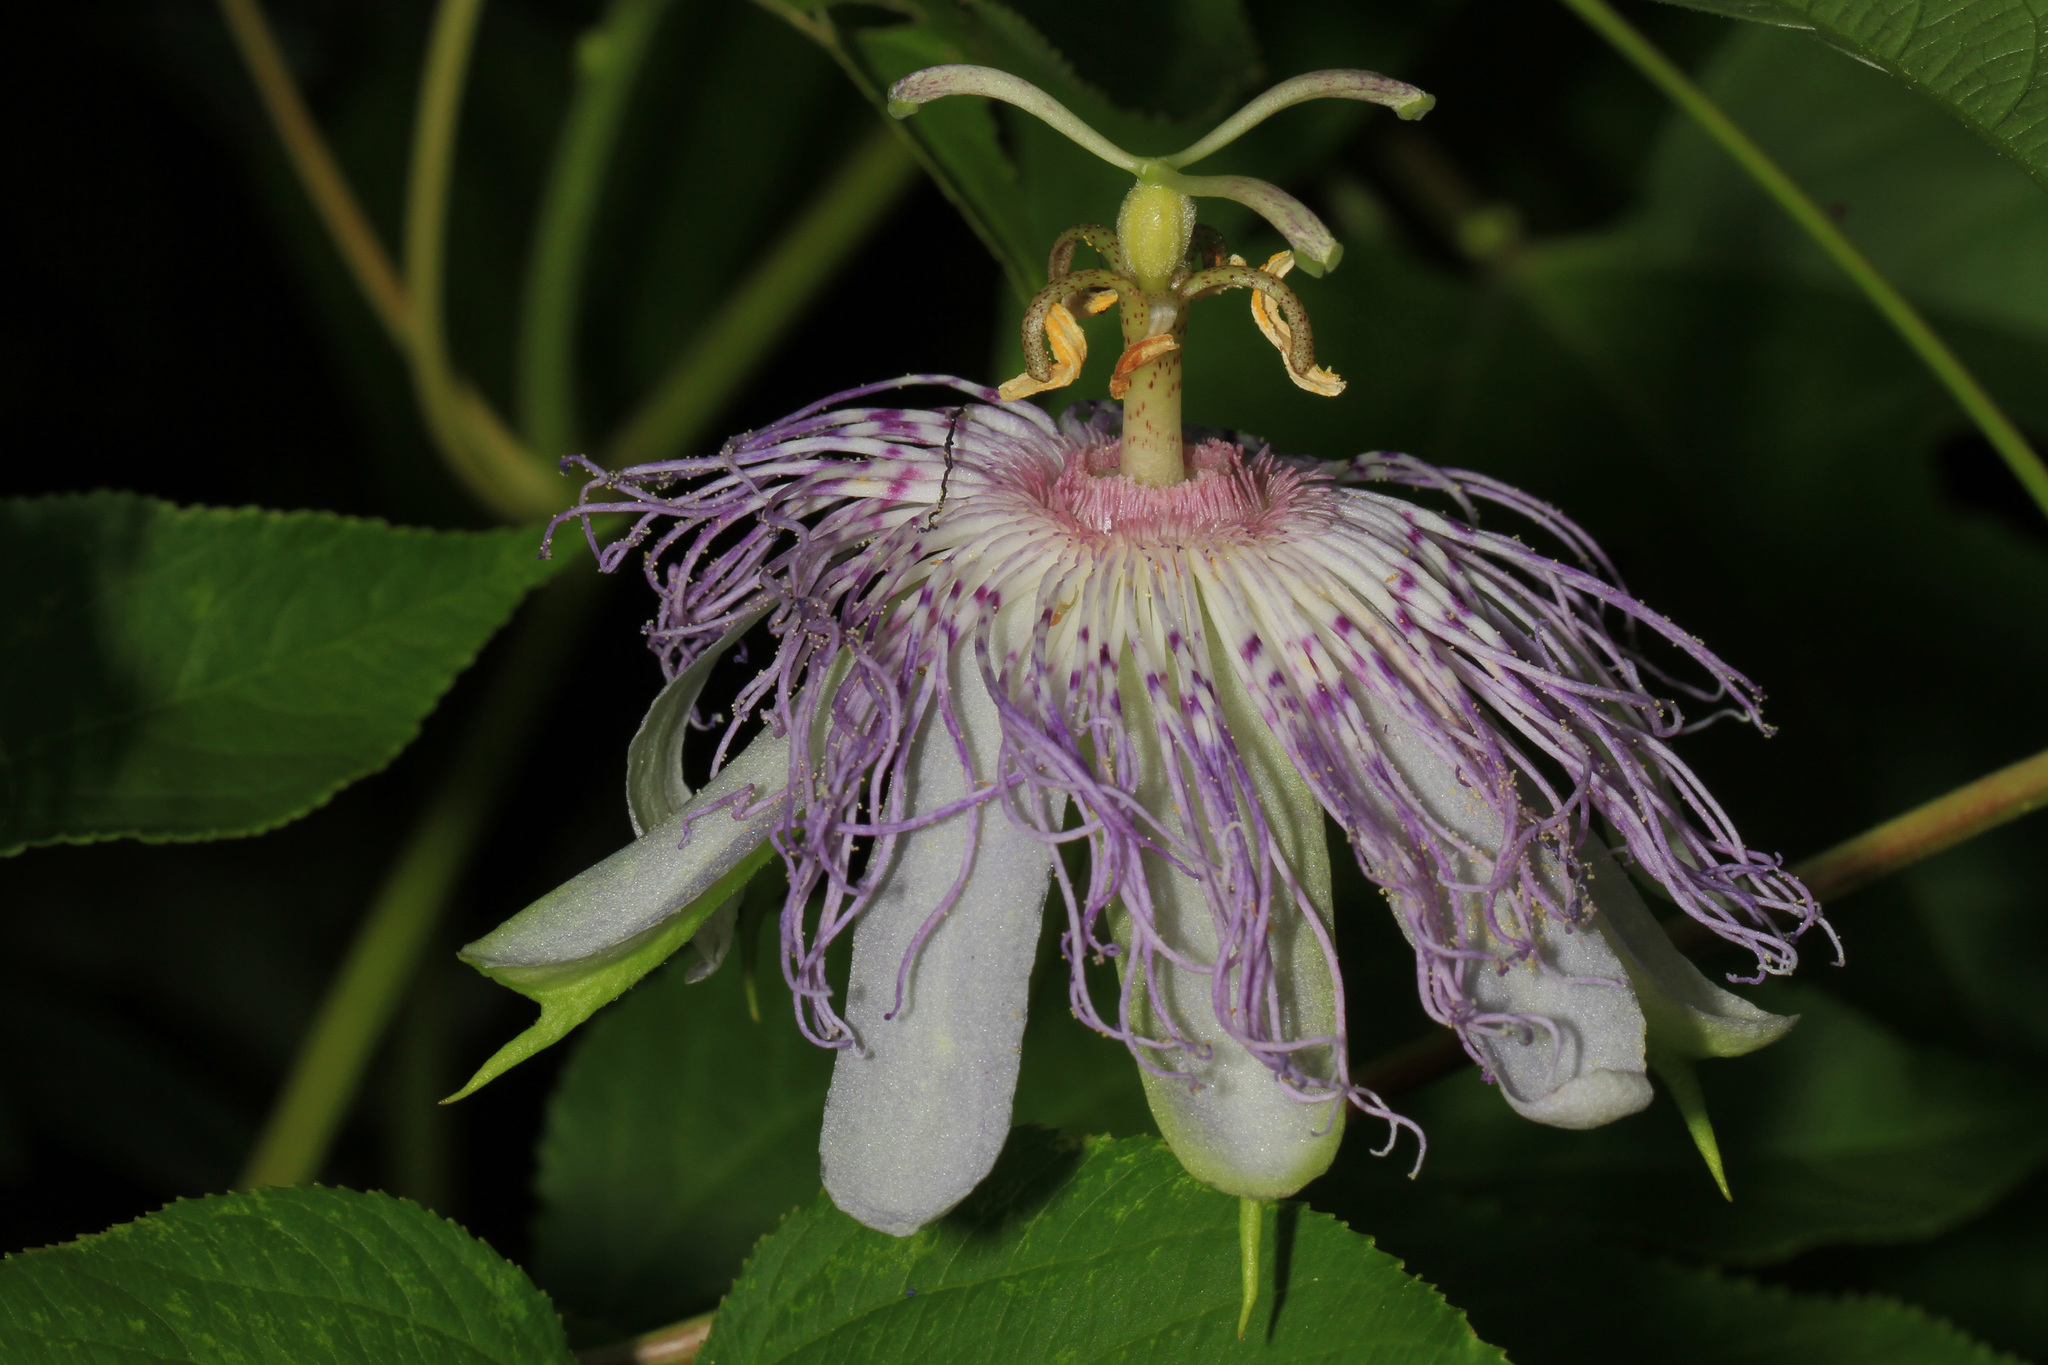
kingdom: Plantae
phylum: Tracheophyta
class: Magnoliopsida
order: Malpighiales
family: Passifloraceae
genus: Passiflora
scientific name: Passiflora incarnata
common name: Apricot-vine
